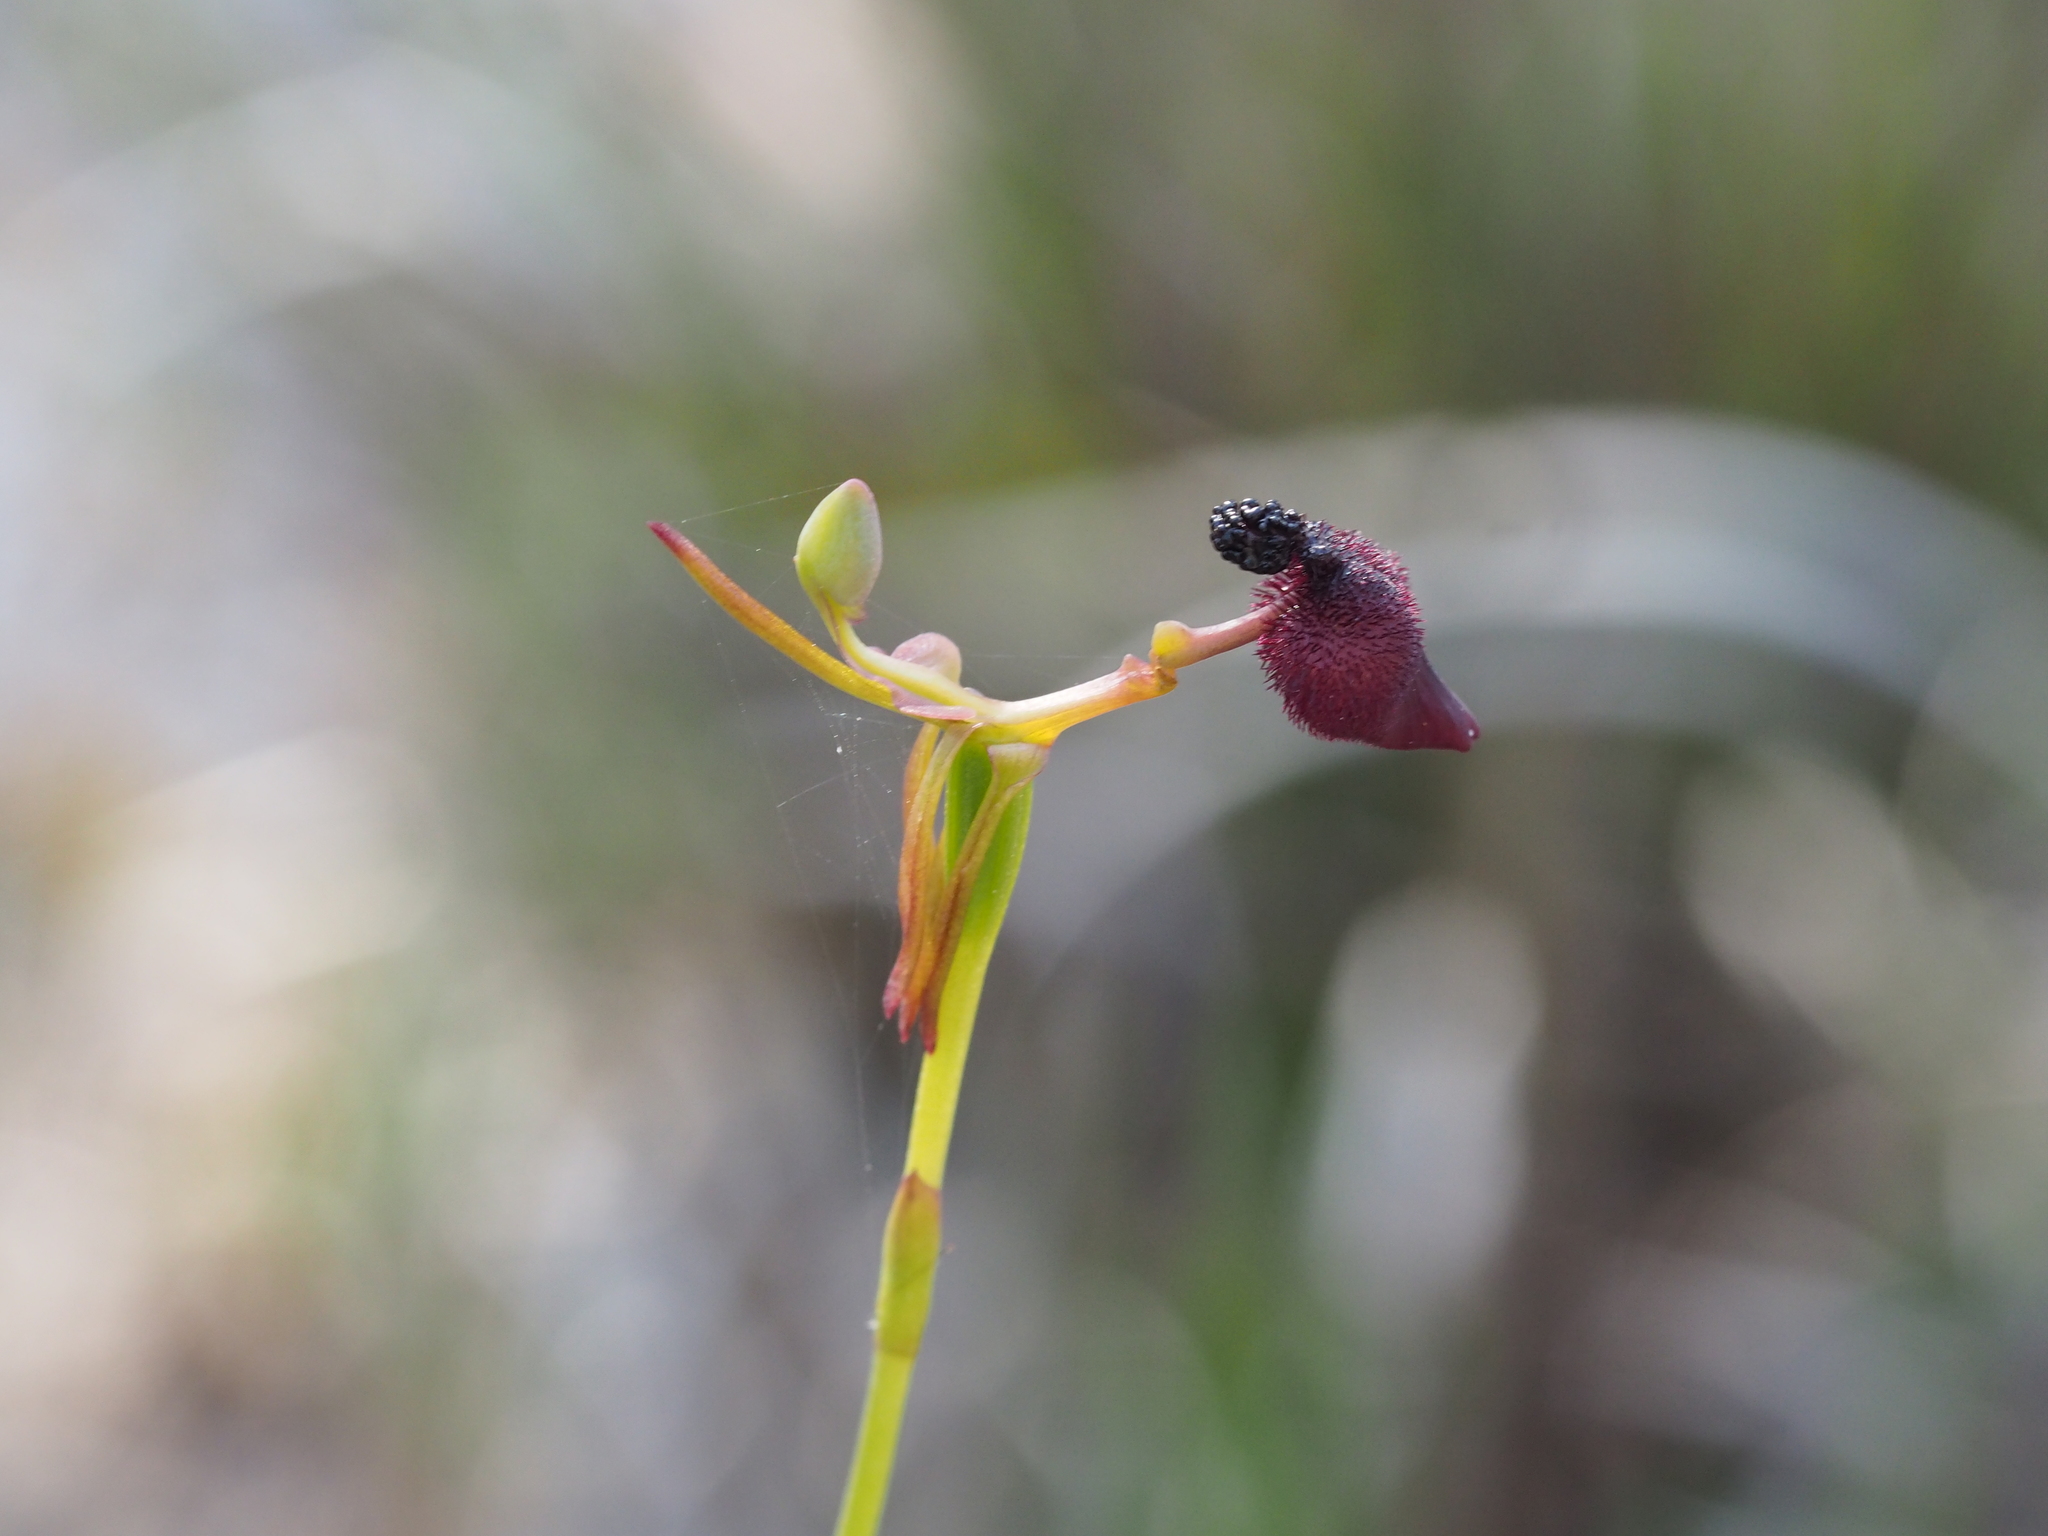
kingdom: Plantae
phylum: Tracheophyta
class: Liliopsida
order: Asparagales
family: Orchidaceae
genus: Drakaea
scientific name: Drakaea glyptodon
